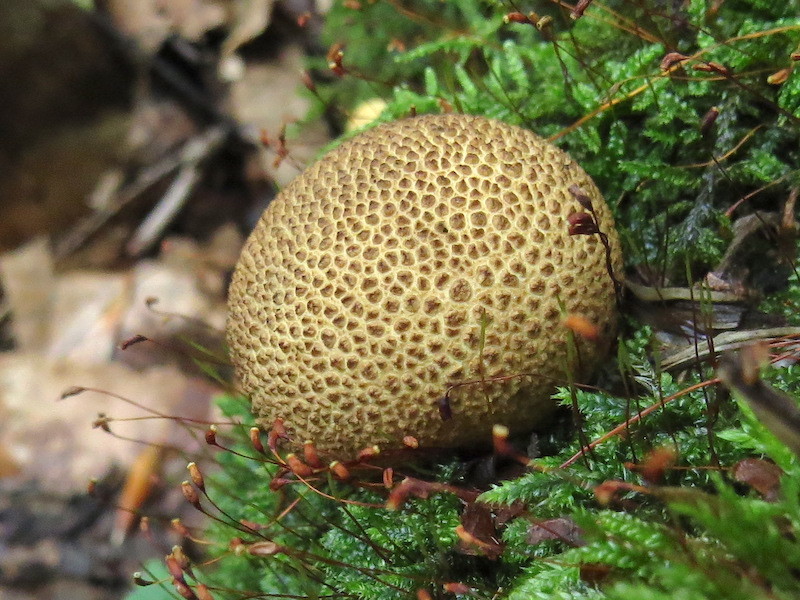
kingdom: Fungi
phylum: Basidiomycota
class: Agaricomycetes
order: Boletales
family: Sclerodermataceae
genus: Scleroderma
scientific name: Scleroderma citrinum
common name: Common earthball
